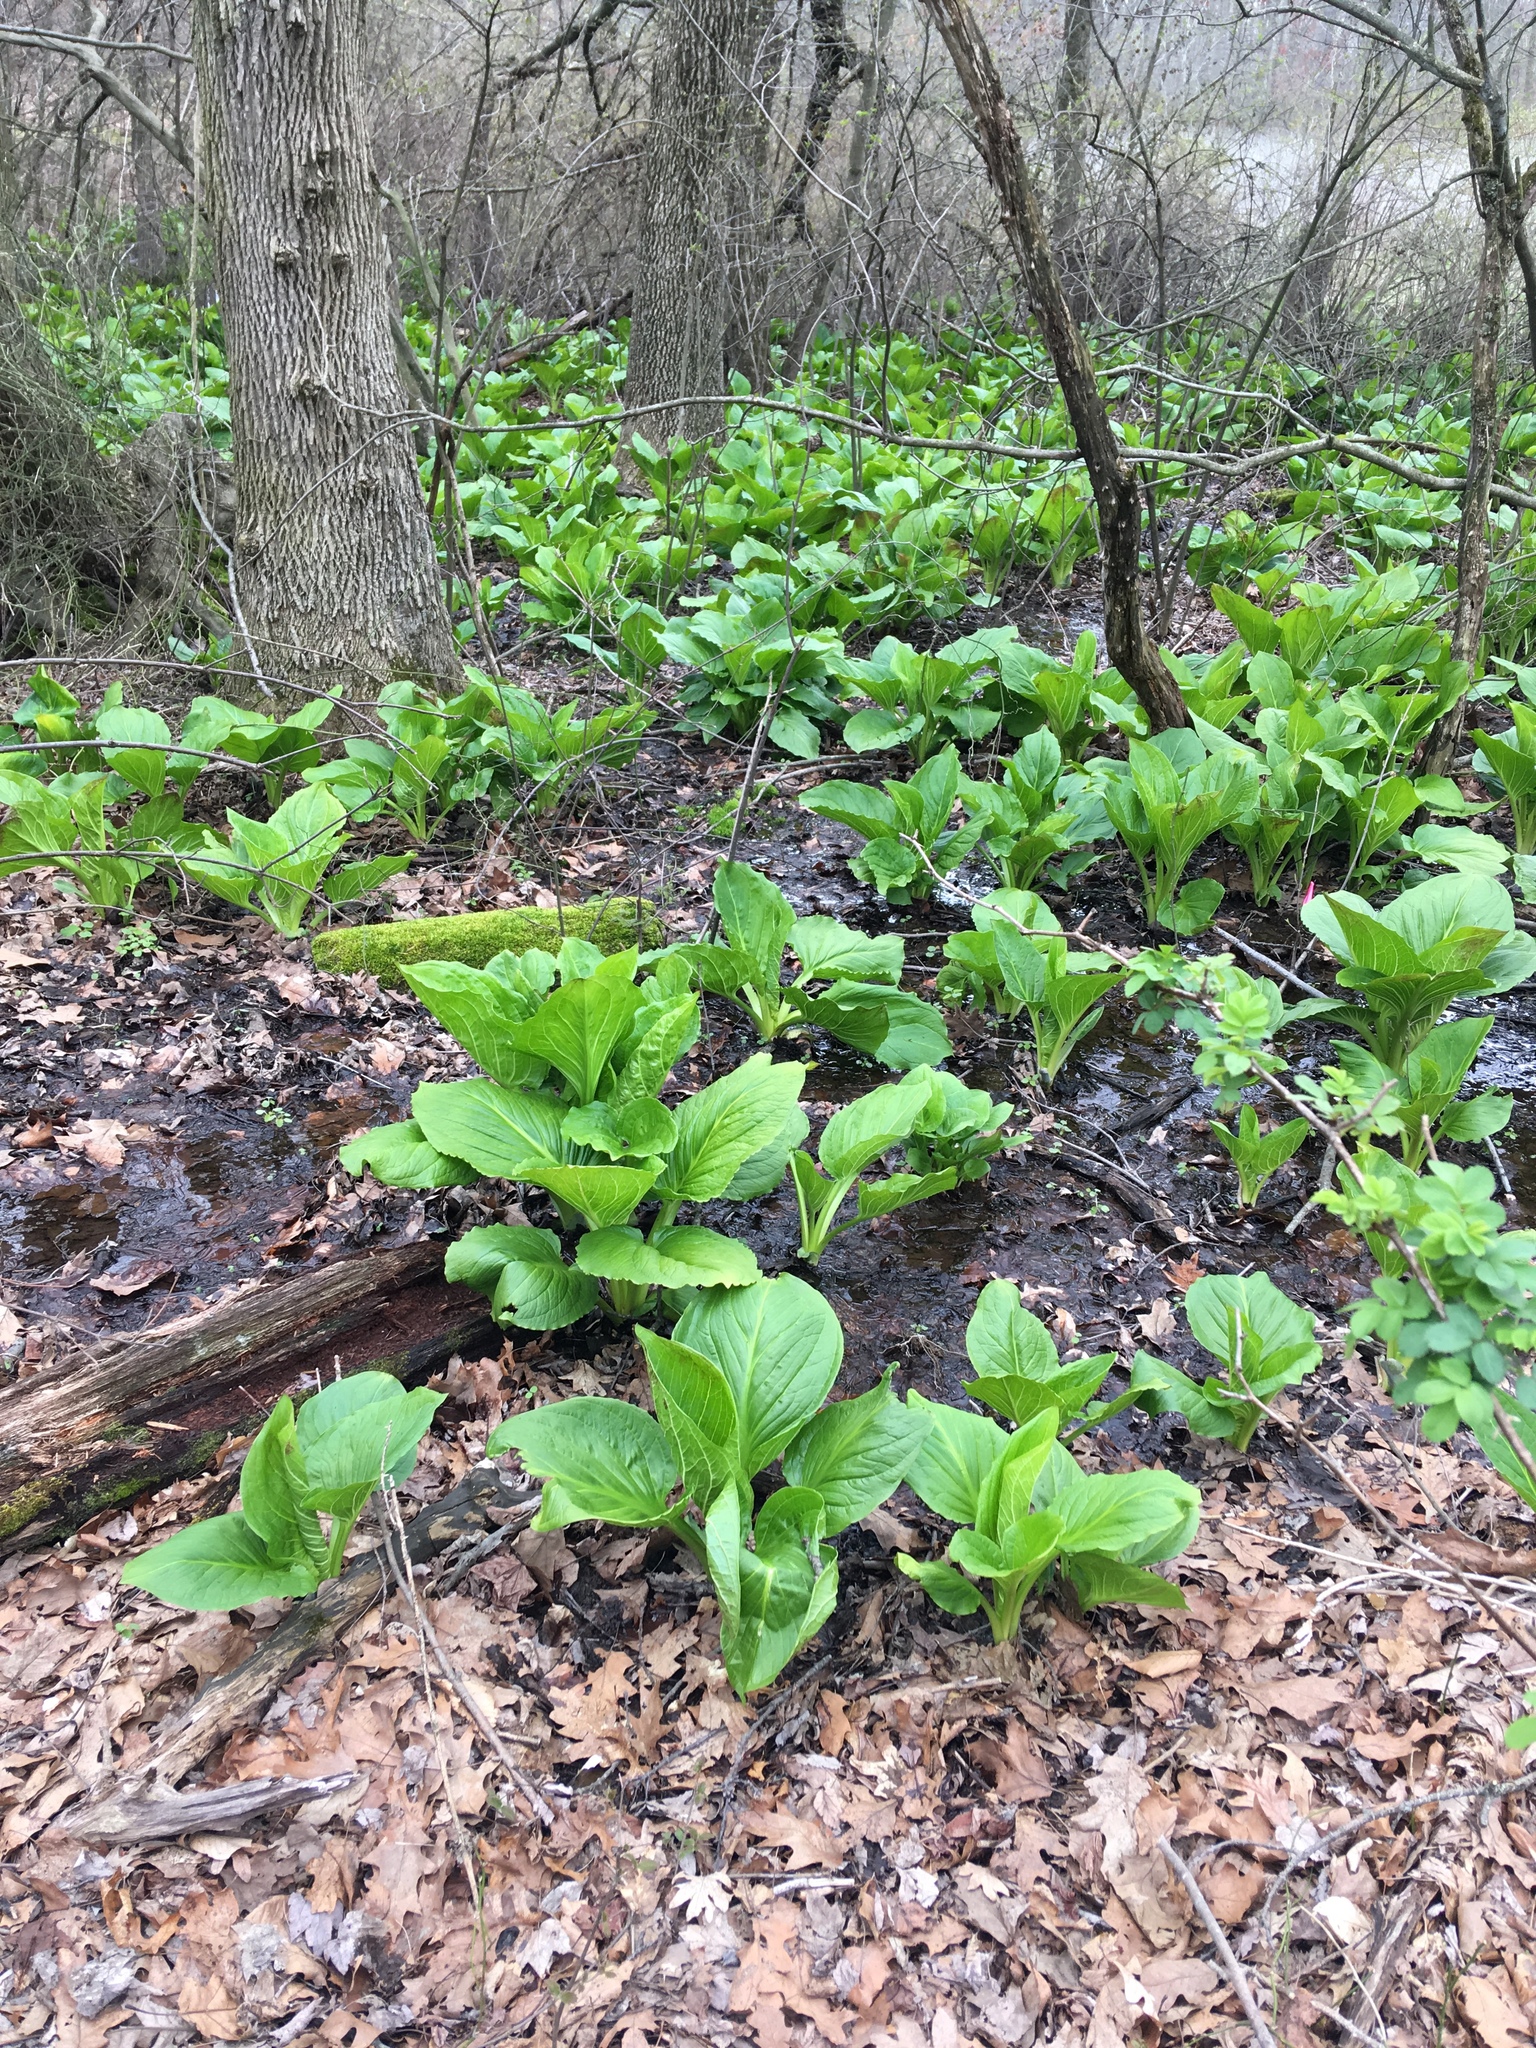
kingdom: Plantae
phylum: Tracheophyta
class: Liliopsida
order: Alismatales
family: Araceae
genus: Symplocarpus
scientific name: Symplocarpus foetidus
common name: Eastern skunk cabbage
